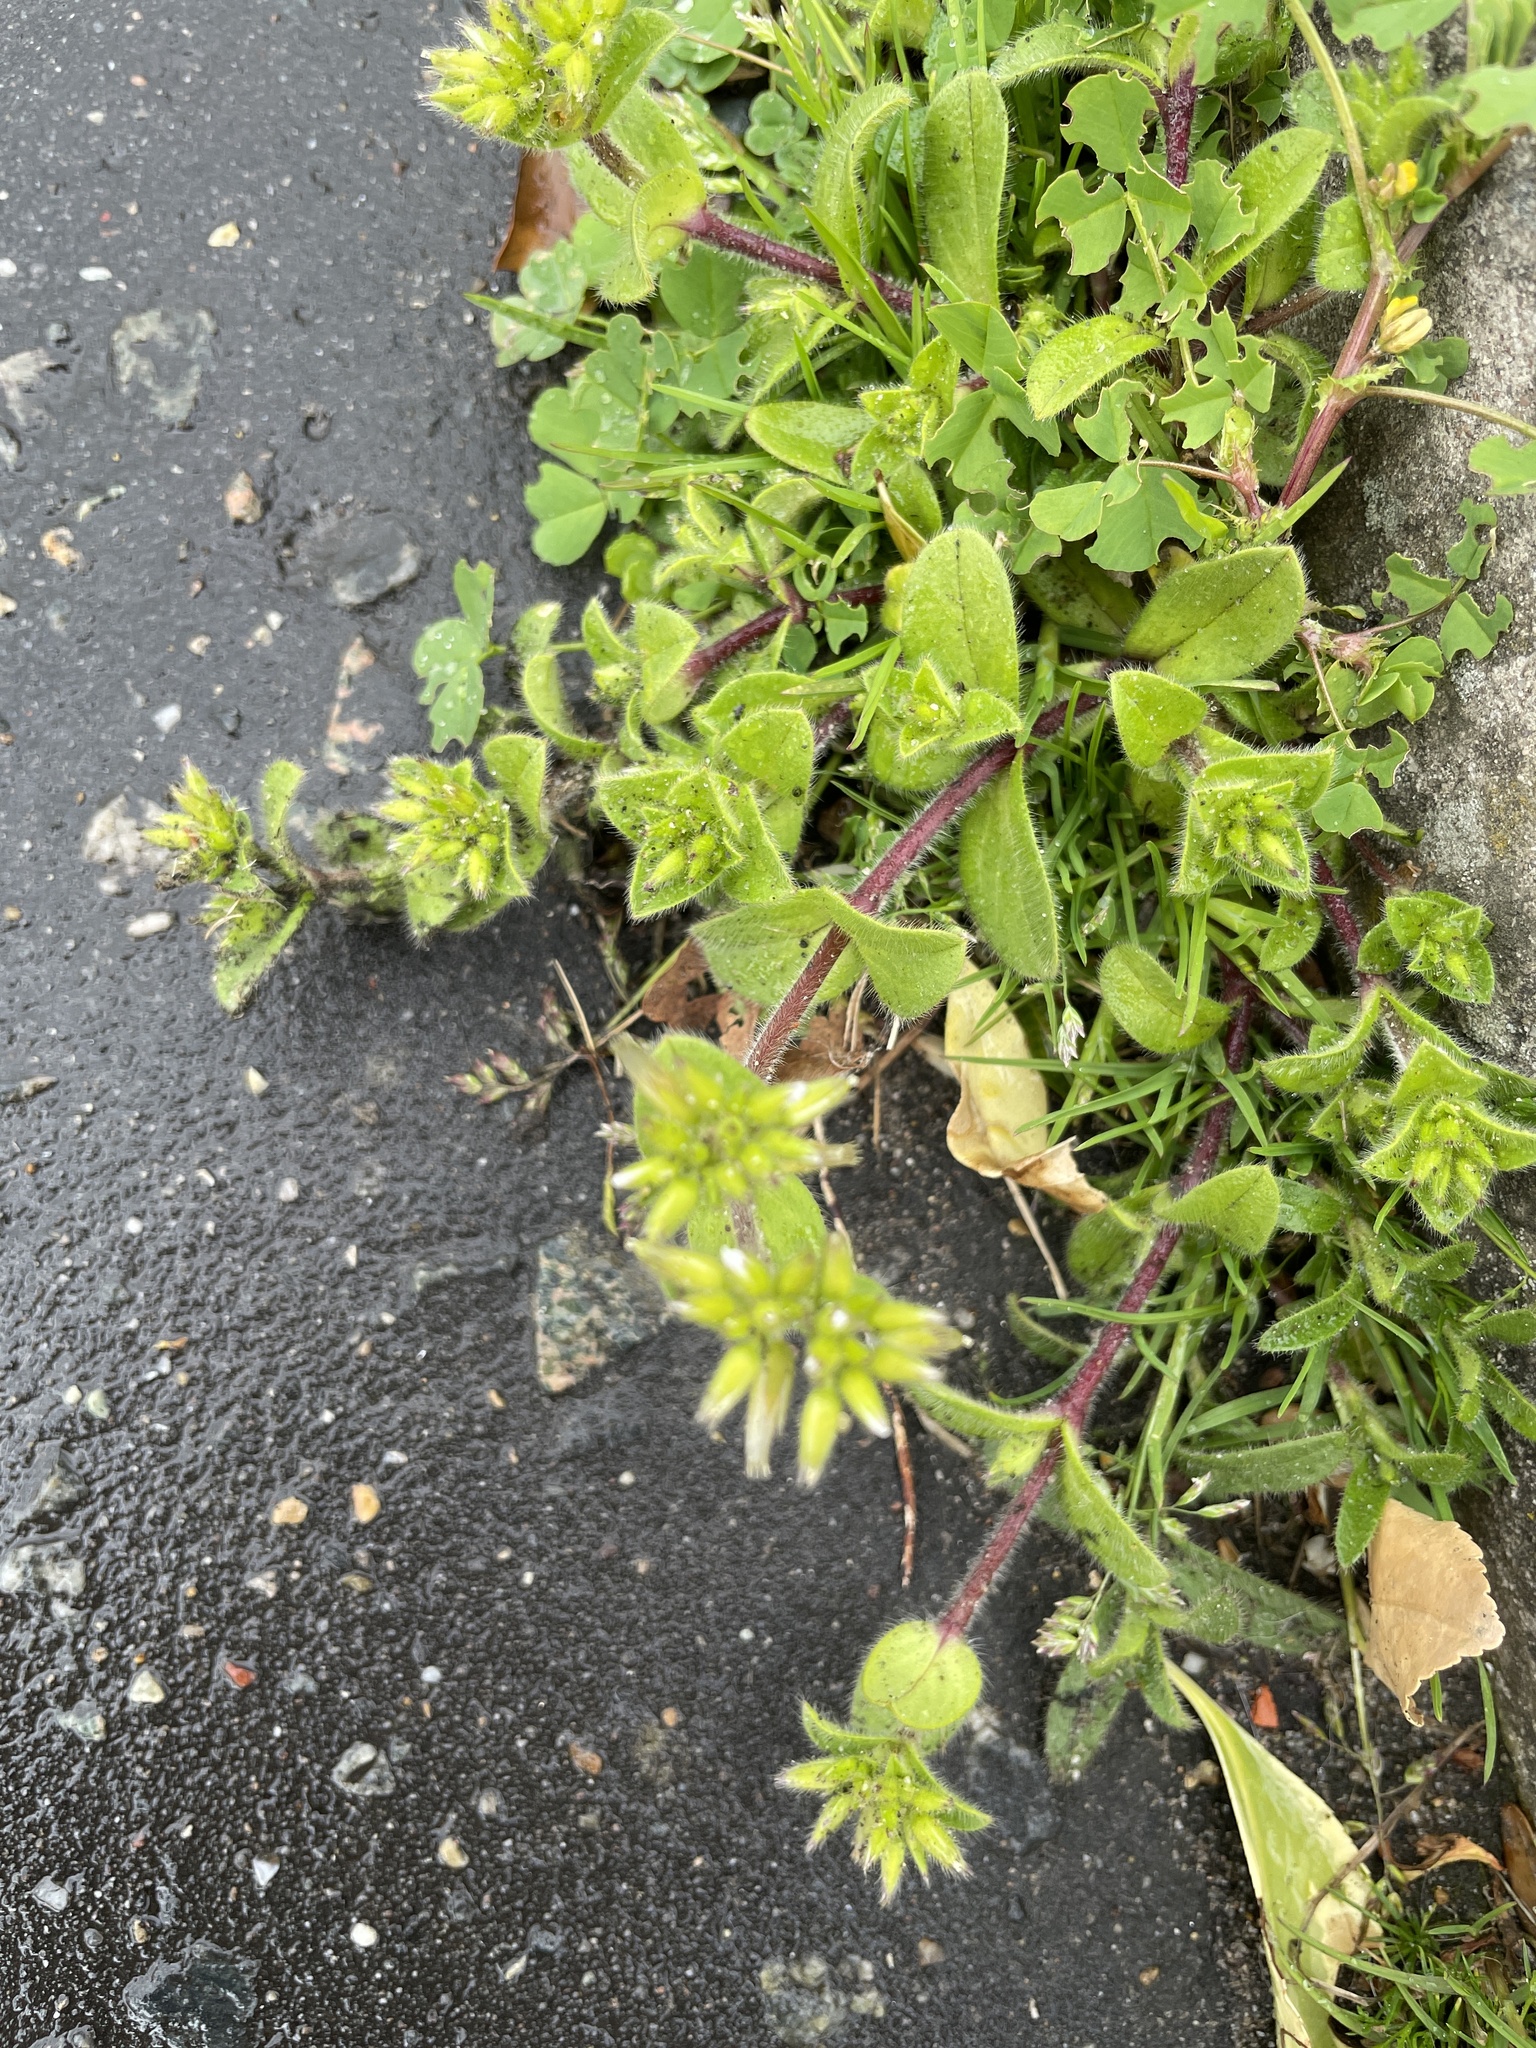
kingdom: Plantae
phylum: Tracheophyta
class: Magnoliopsida
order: Caryophyllales
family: Caryophyllaceae
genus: Cerastium
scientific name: Cerastium glomeratum
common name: Sticky chickweed
